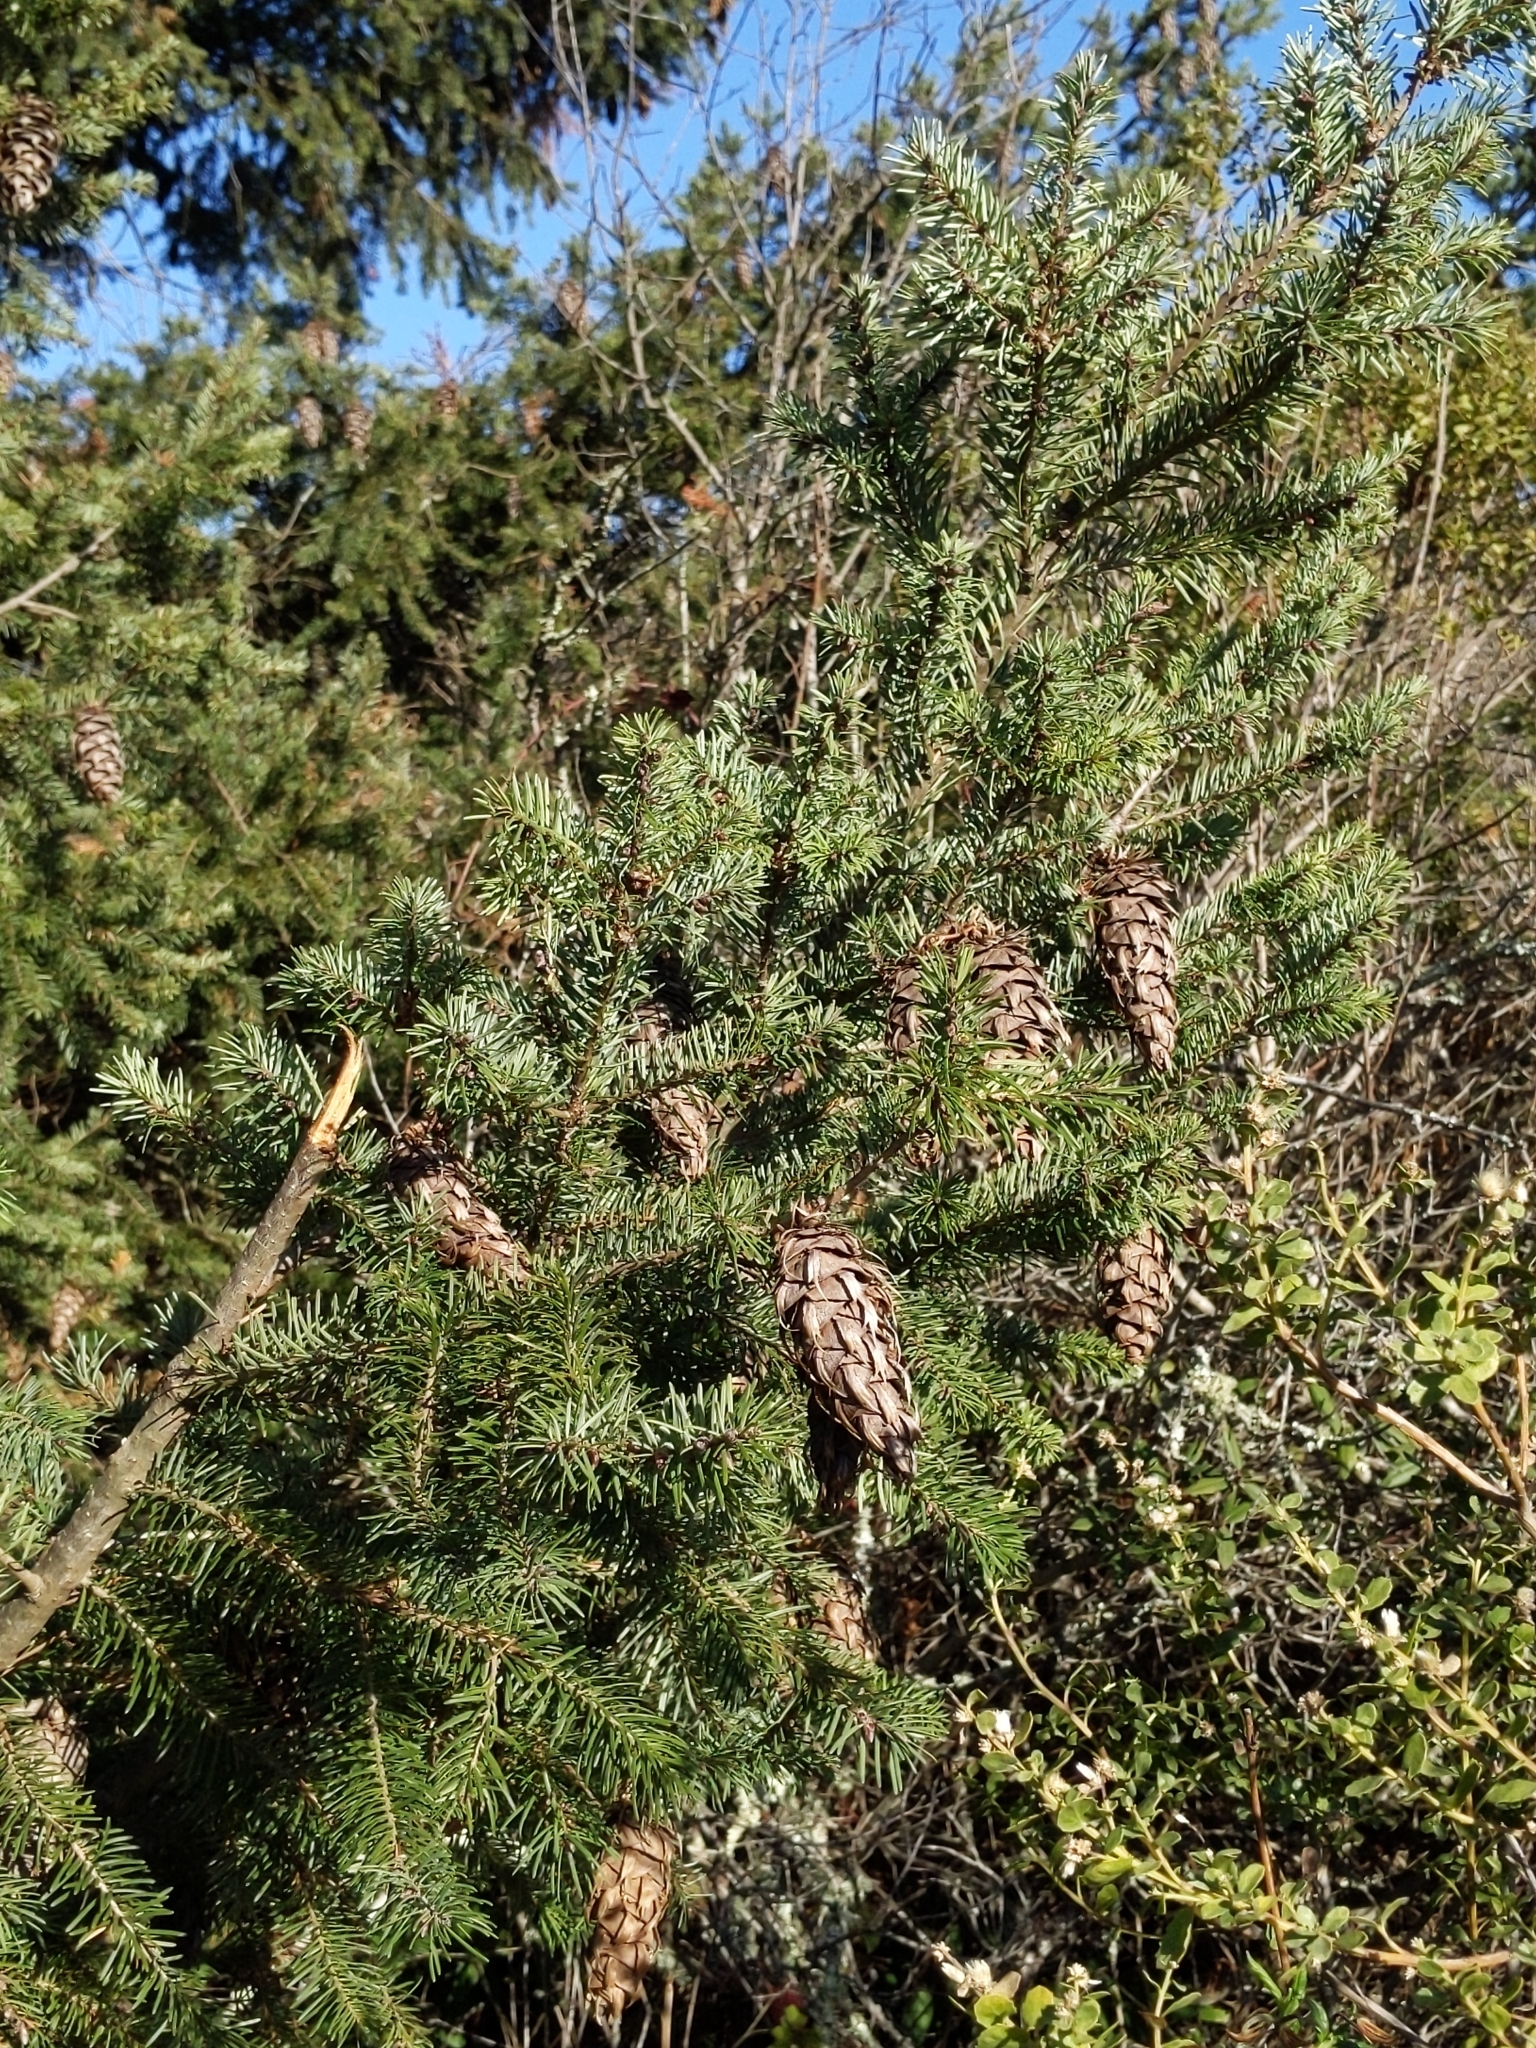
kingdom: Plantae
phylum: Tracheophyta
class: Pinopsida
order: Pinales
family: Pinaceae
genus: Pseudotsuga
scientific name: Pseudotsuga menziesii
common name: Douglas fir
